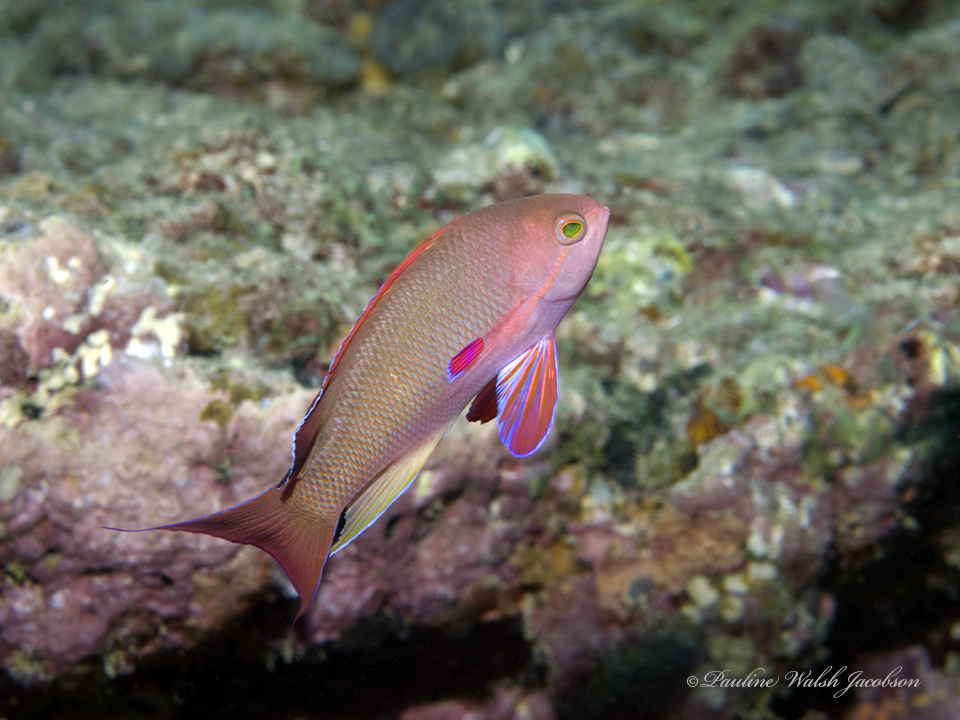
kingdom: Animalia
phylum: Chordata
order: Perciformes
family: Serranidae
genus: Pseudanthias
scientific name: Pseudanthias squamipinnis
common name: Scalefin anthias
